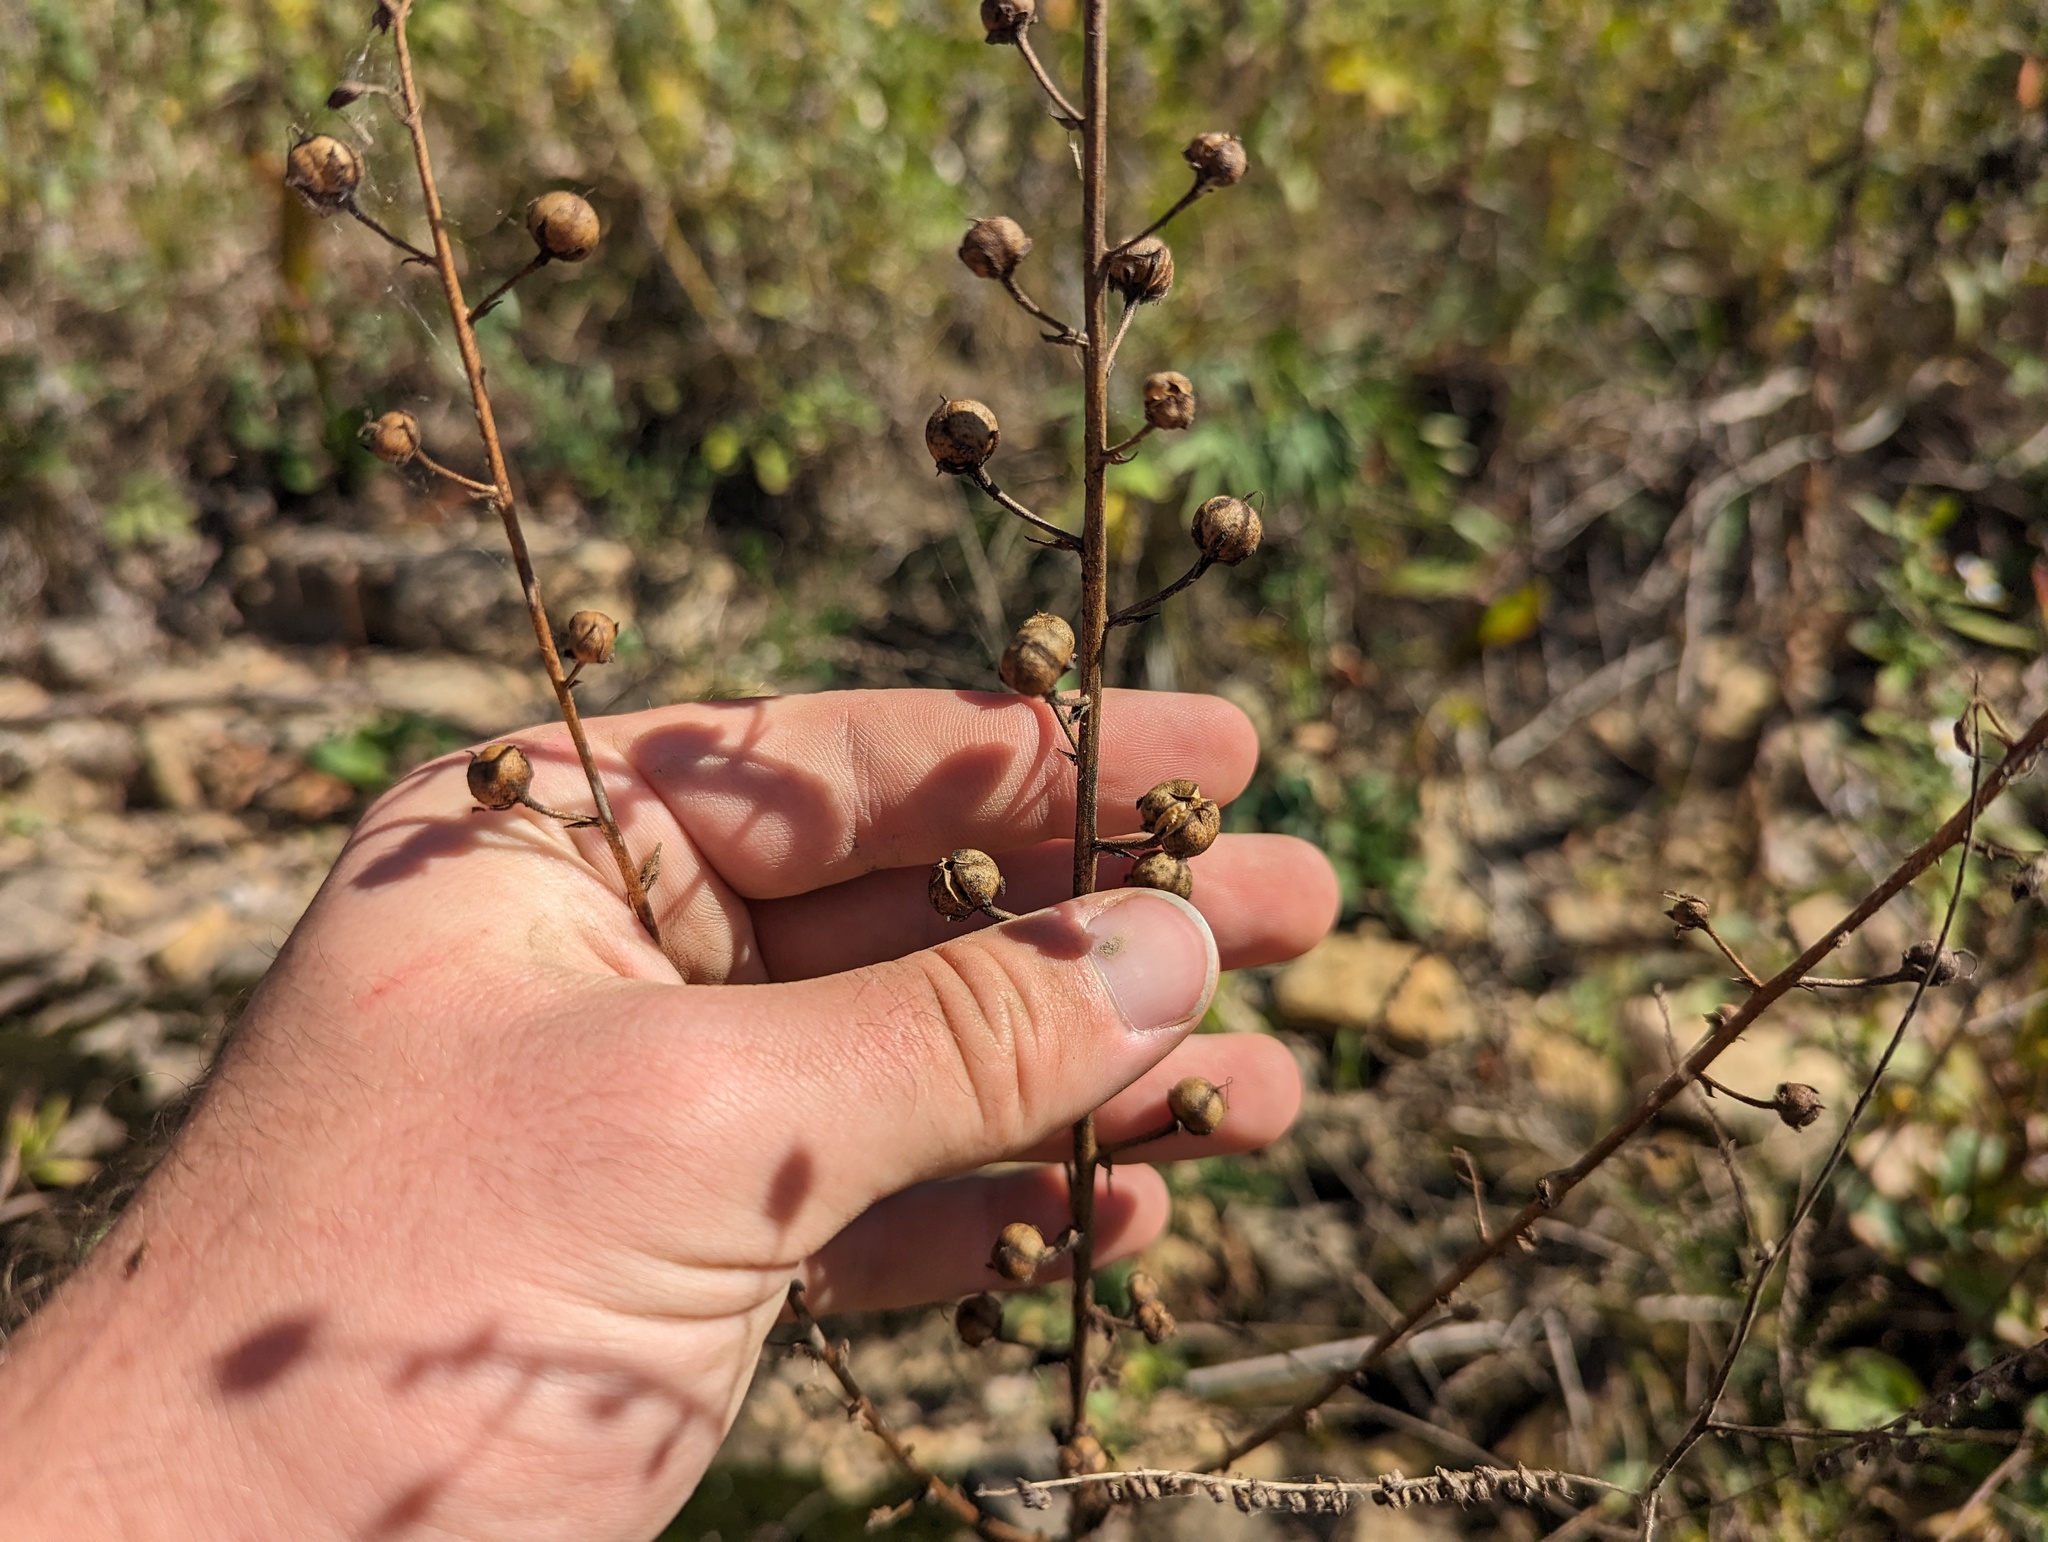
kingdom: Plantae
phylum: Tracheophyta
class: Magnoliopsida
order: Lamiales
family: Scrophulariaceae
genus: Verbascum
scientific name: Verbascum blattaria
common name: Moth mullein
